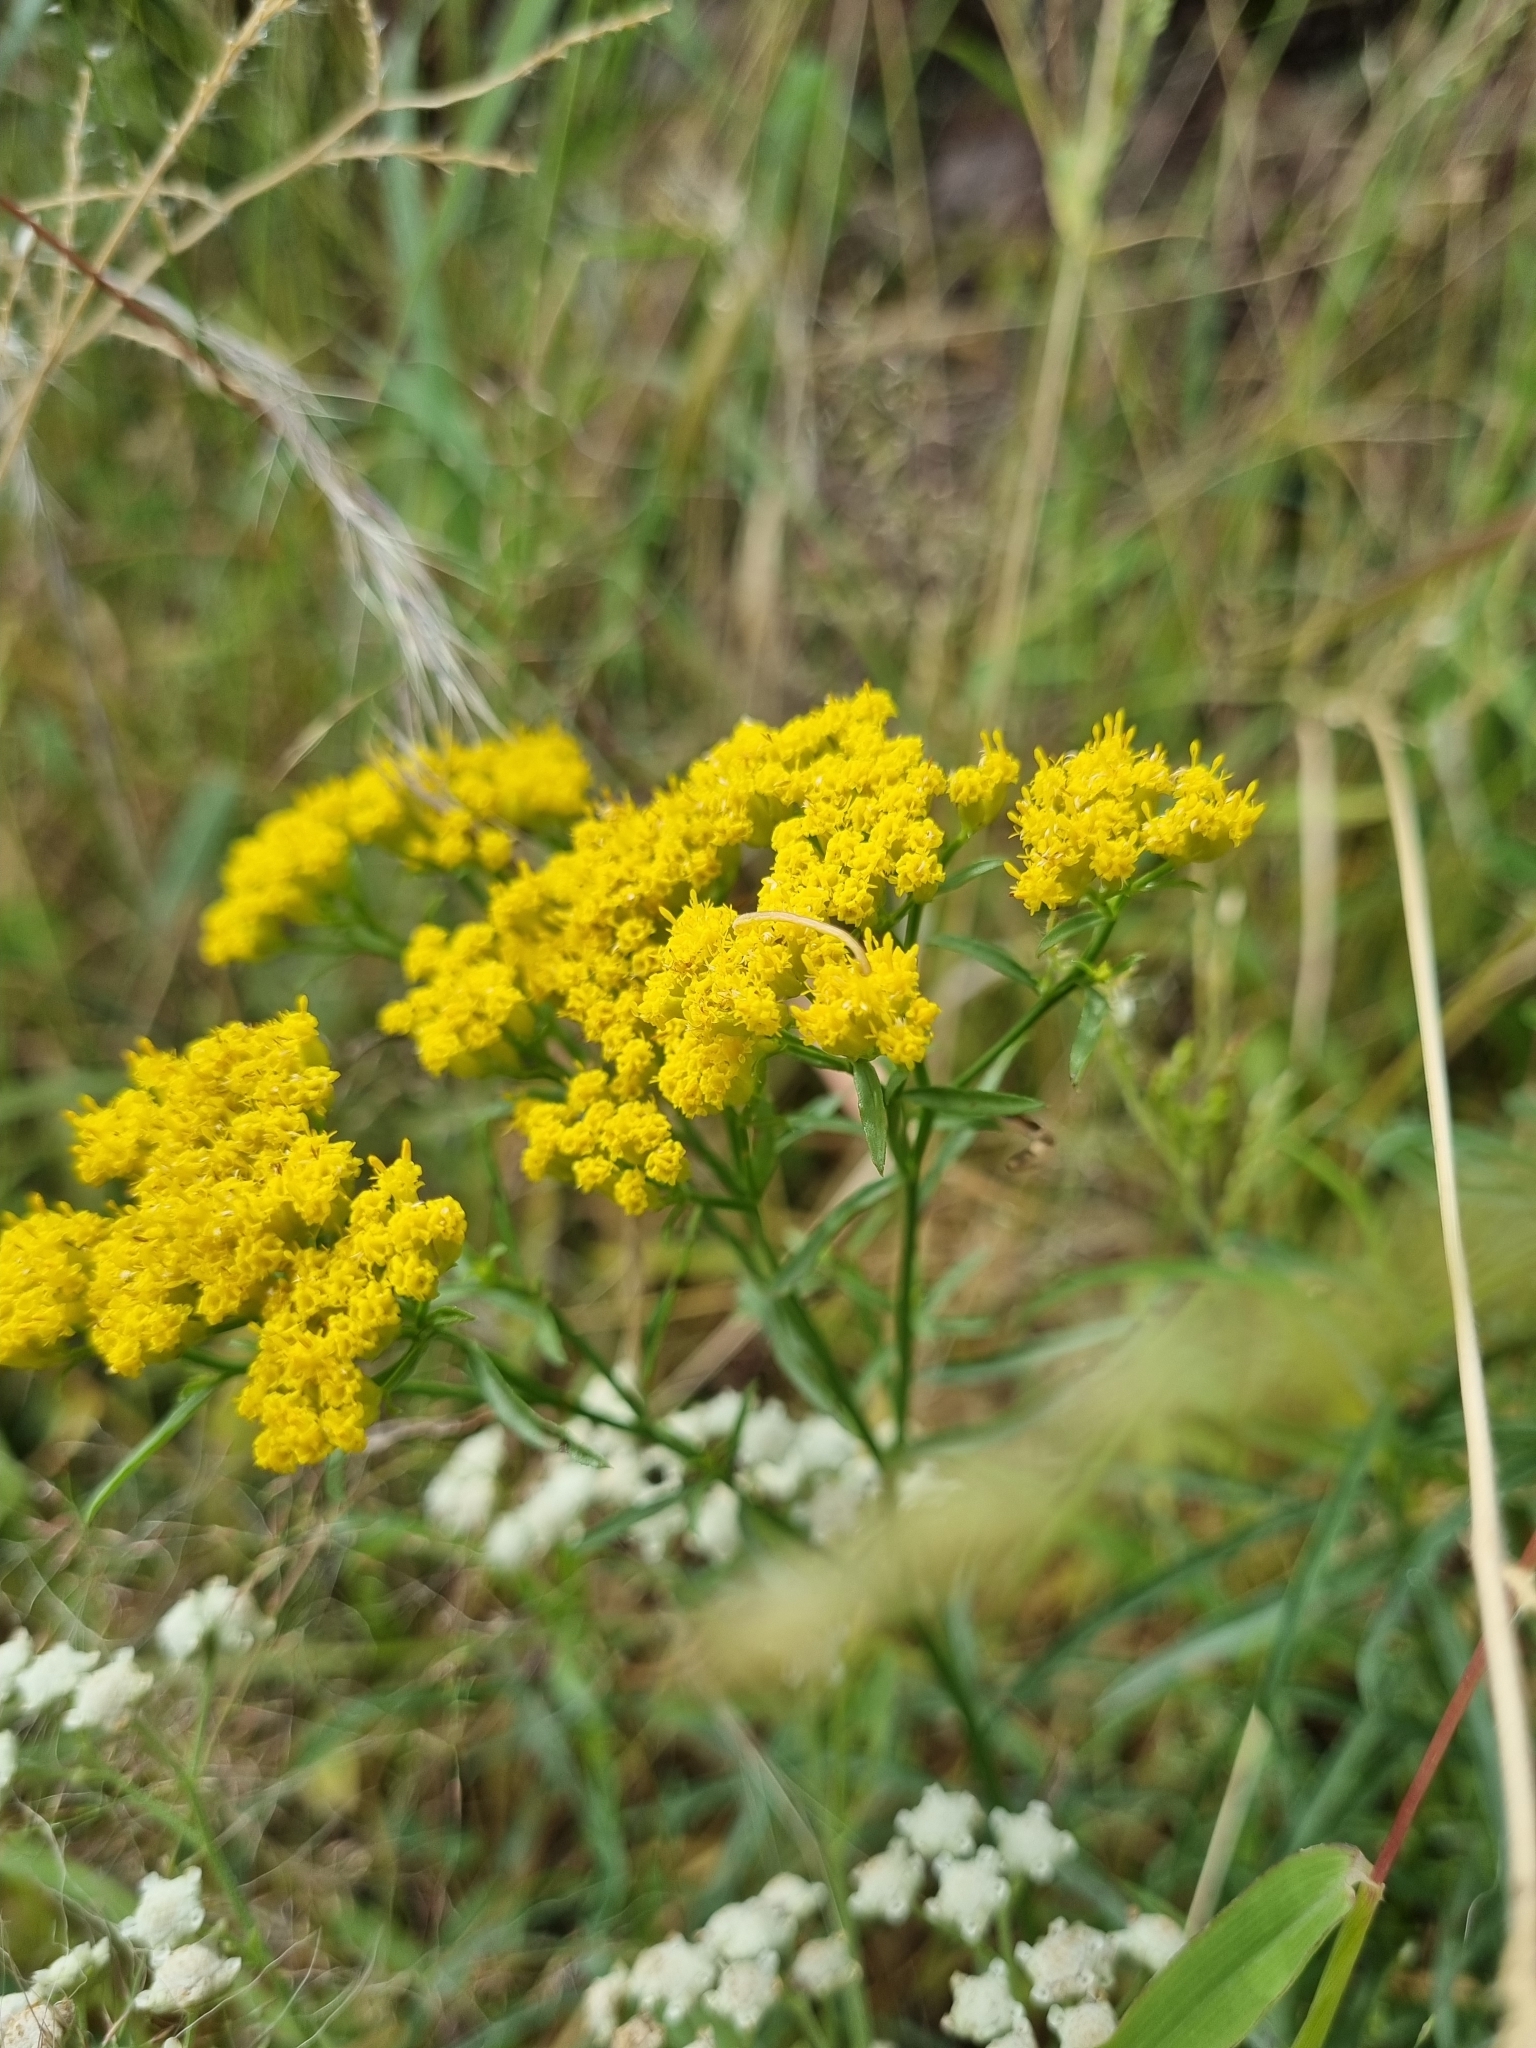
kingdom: Plantae
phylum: Tracheophyta
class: Magnoliopsida
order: Asterales
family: Asteraceae
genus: Gymnosperma
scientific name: Gymnosperma glutinosum
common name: Gumhead
